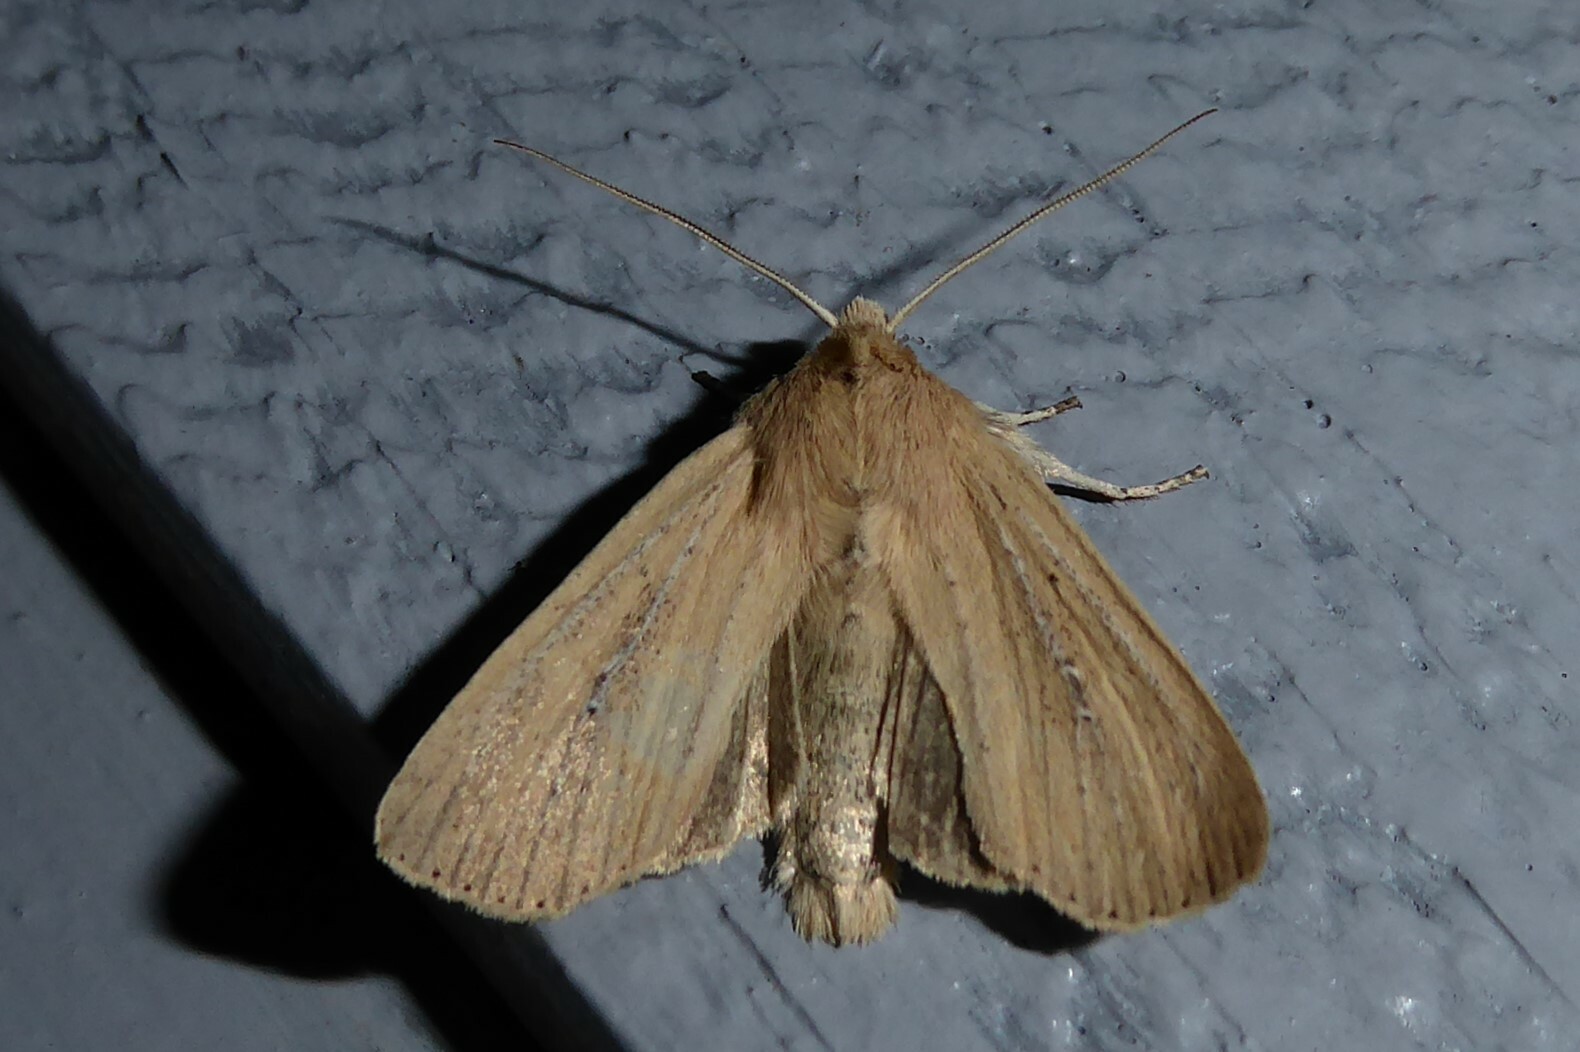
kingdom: Animalia
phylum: Arthropoda
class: Insecta
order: Lepidoptera
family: Noctuidae
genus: Ichneutica
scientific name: Ichneutica
